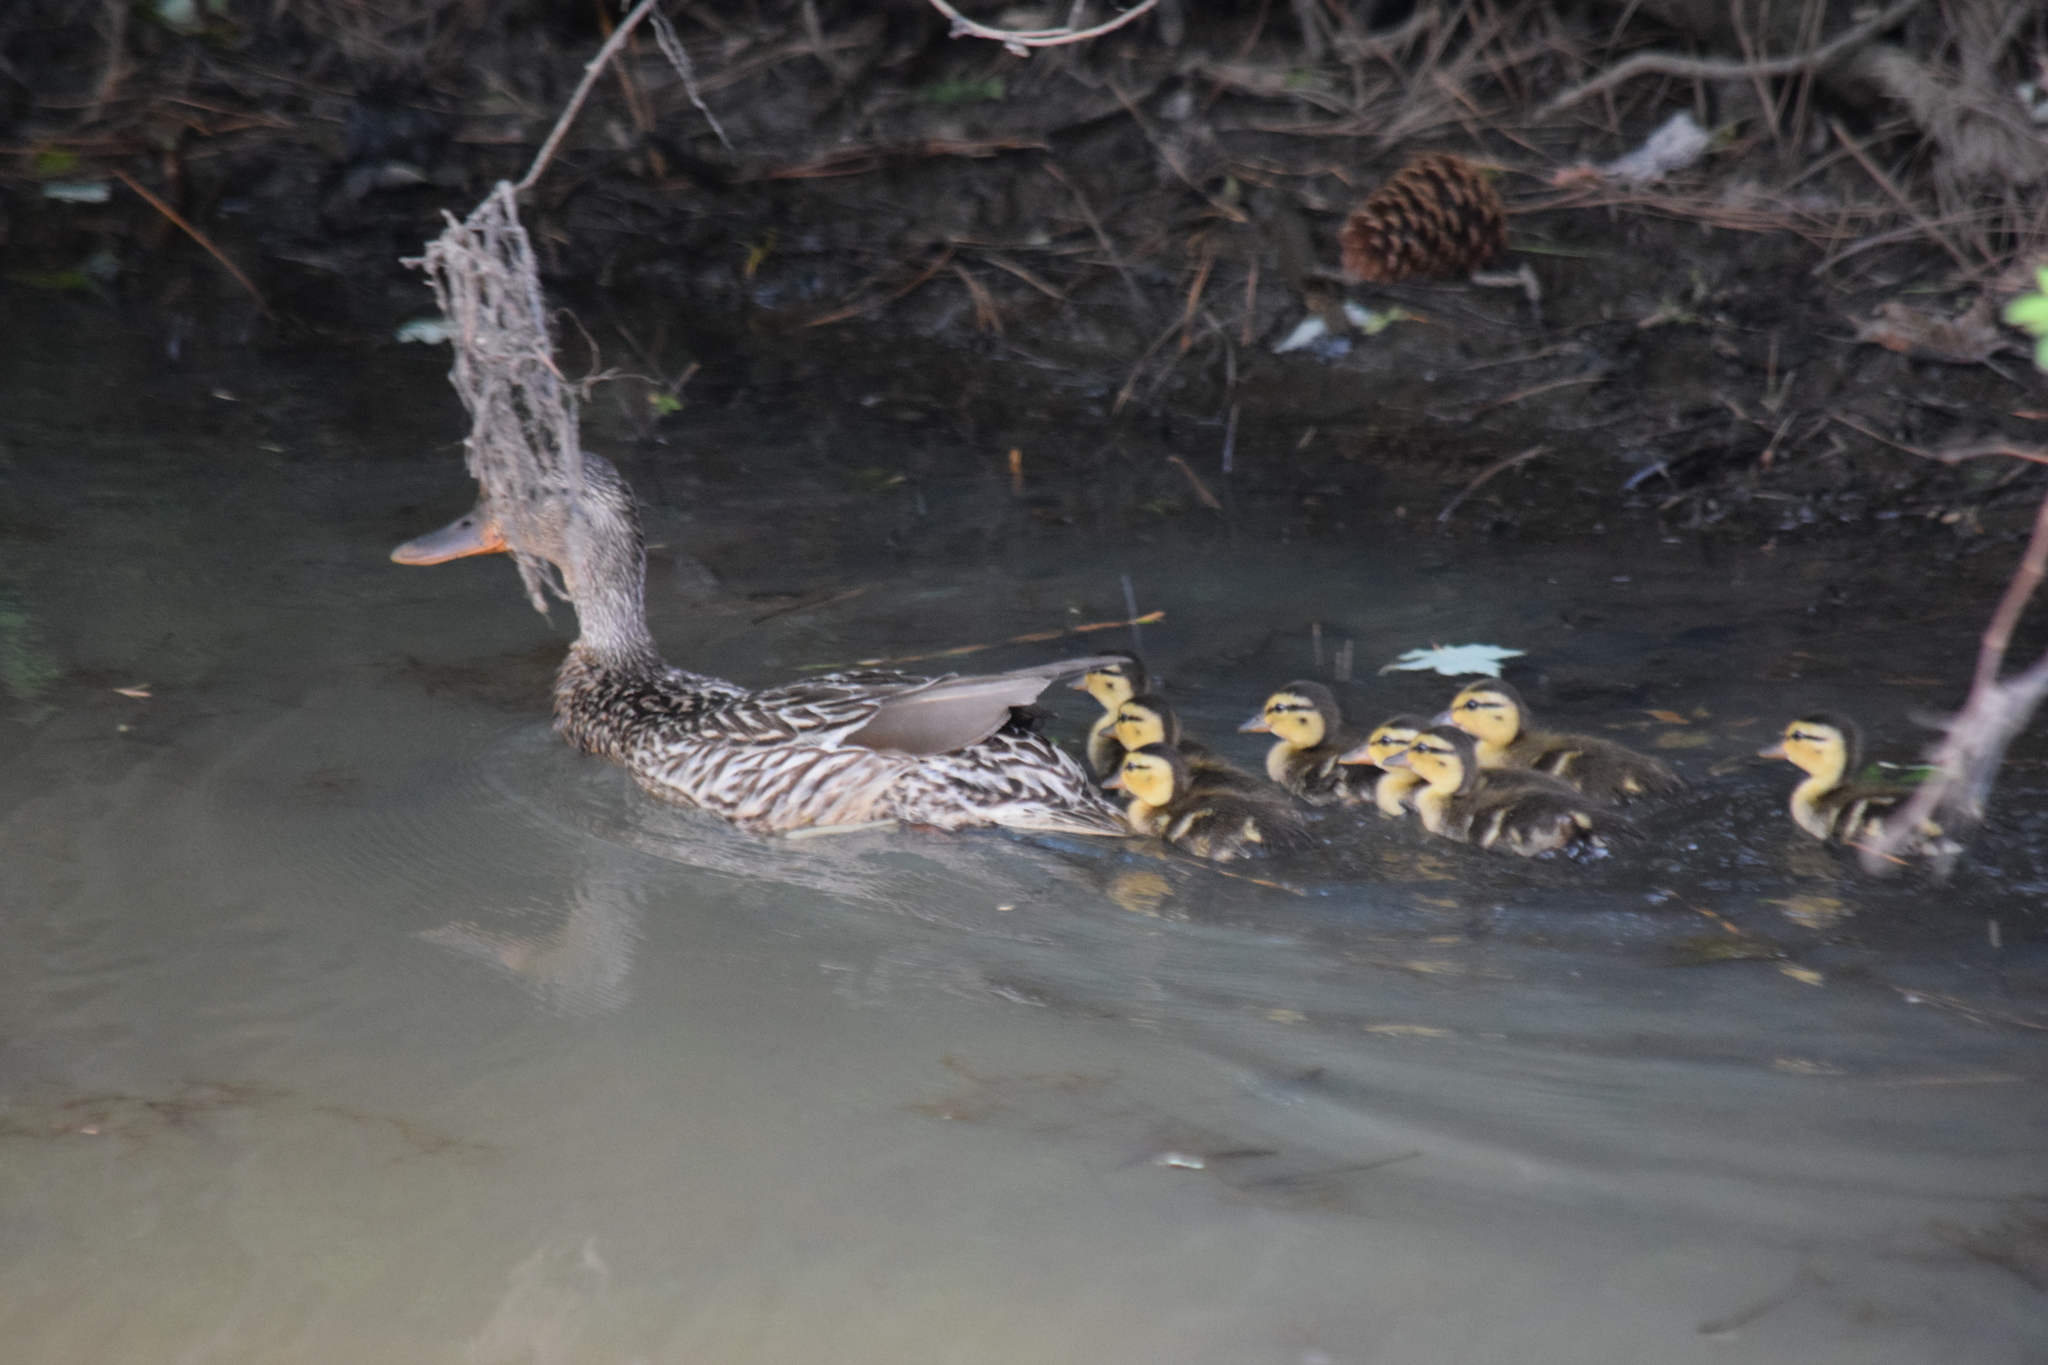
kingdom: Animalia
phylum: Chordata
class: Aves
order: Anseriformes
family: Anatidae
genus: Anas
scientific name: Anas platyrhynchos
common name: Mallard
